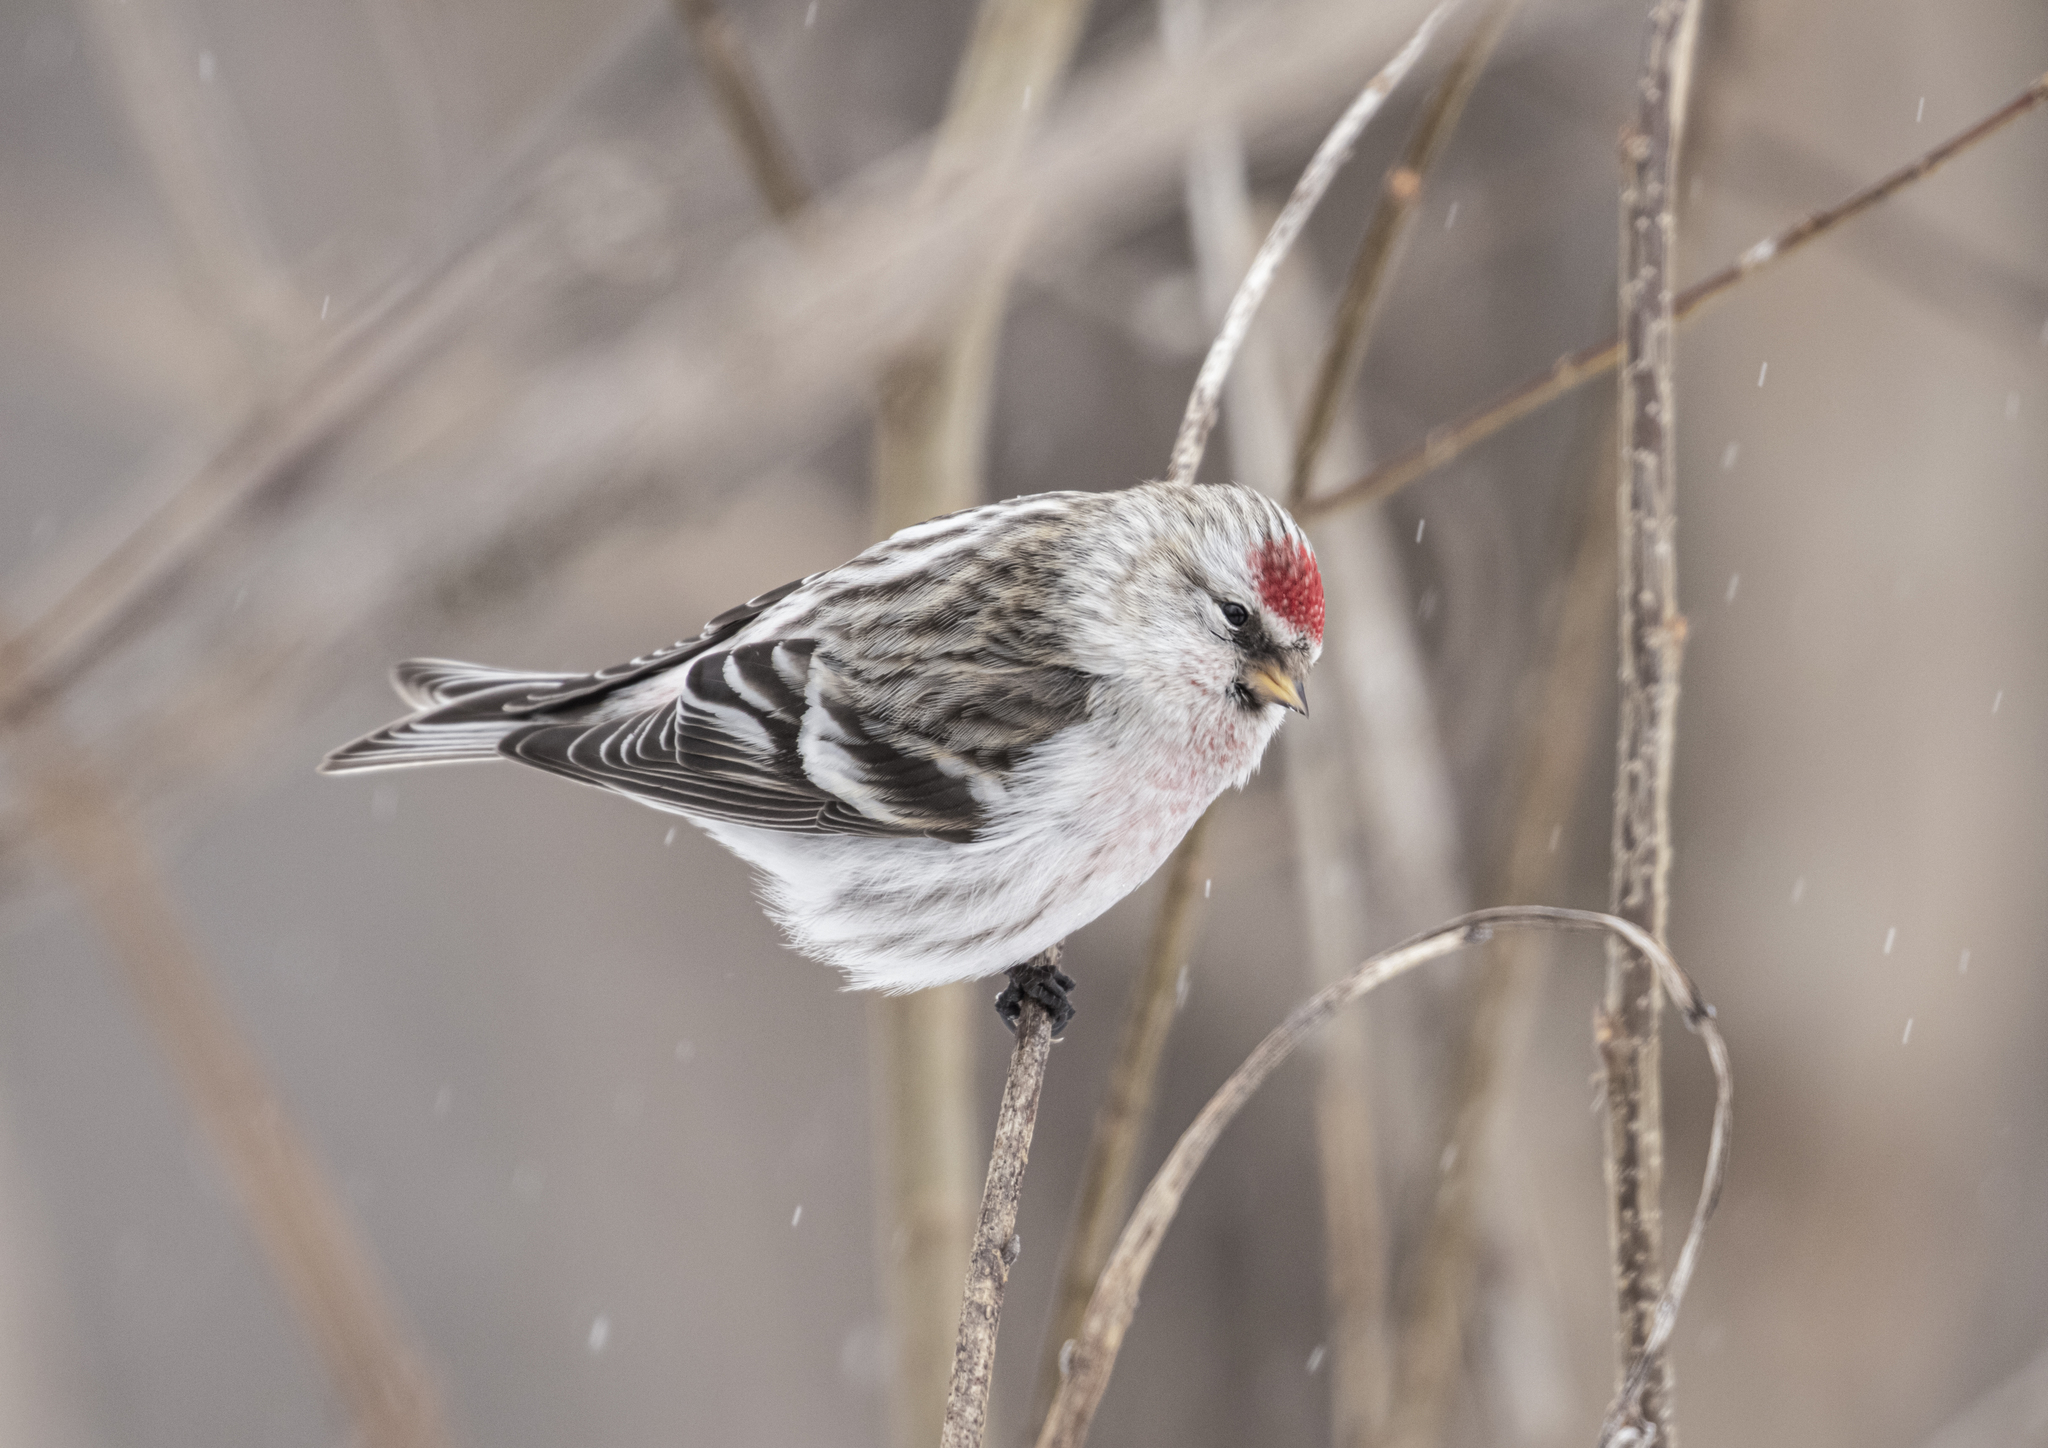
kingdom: Animalia
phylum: Chordata
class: Aves
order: Passeriformes
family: Fringillidae
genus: Acanthis
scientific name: Acanthis hornemanni
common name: Arctic redpoll
